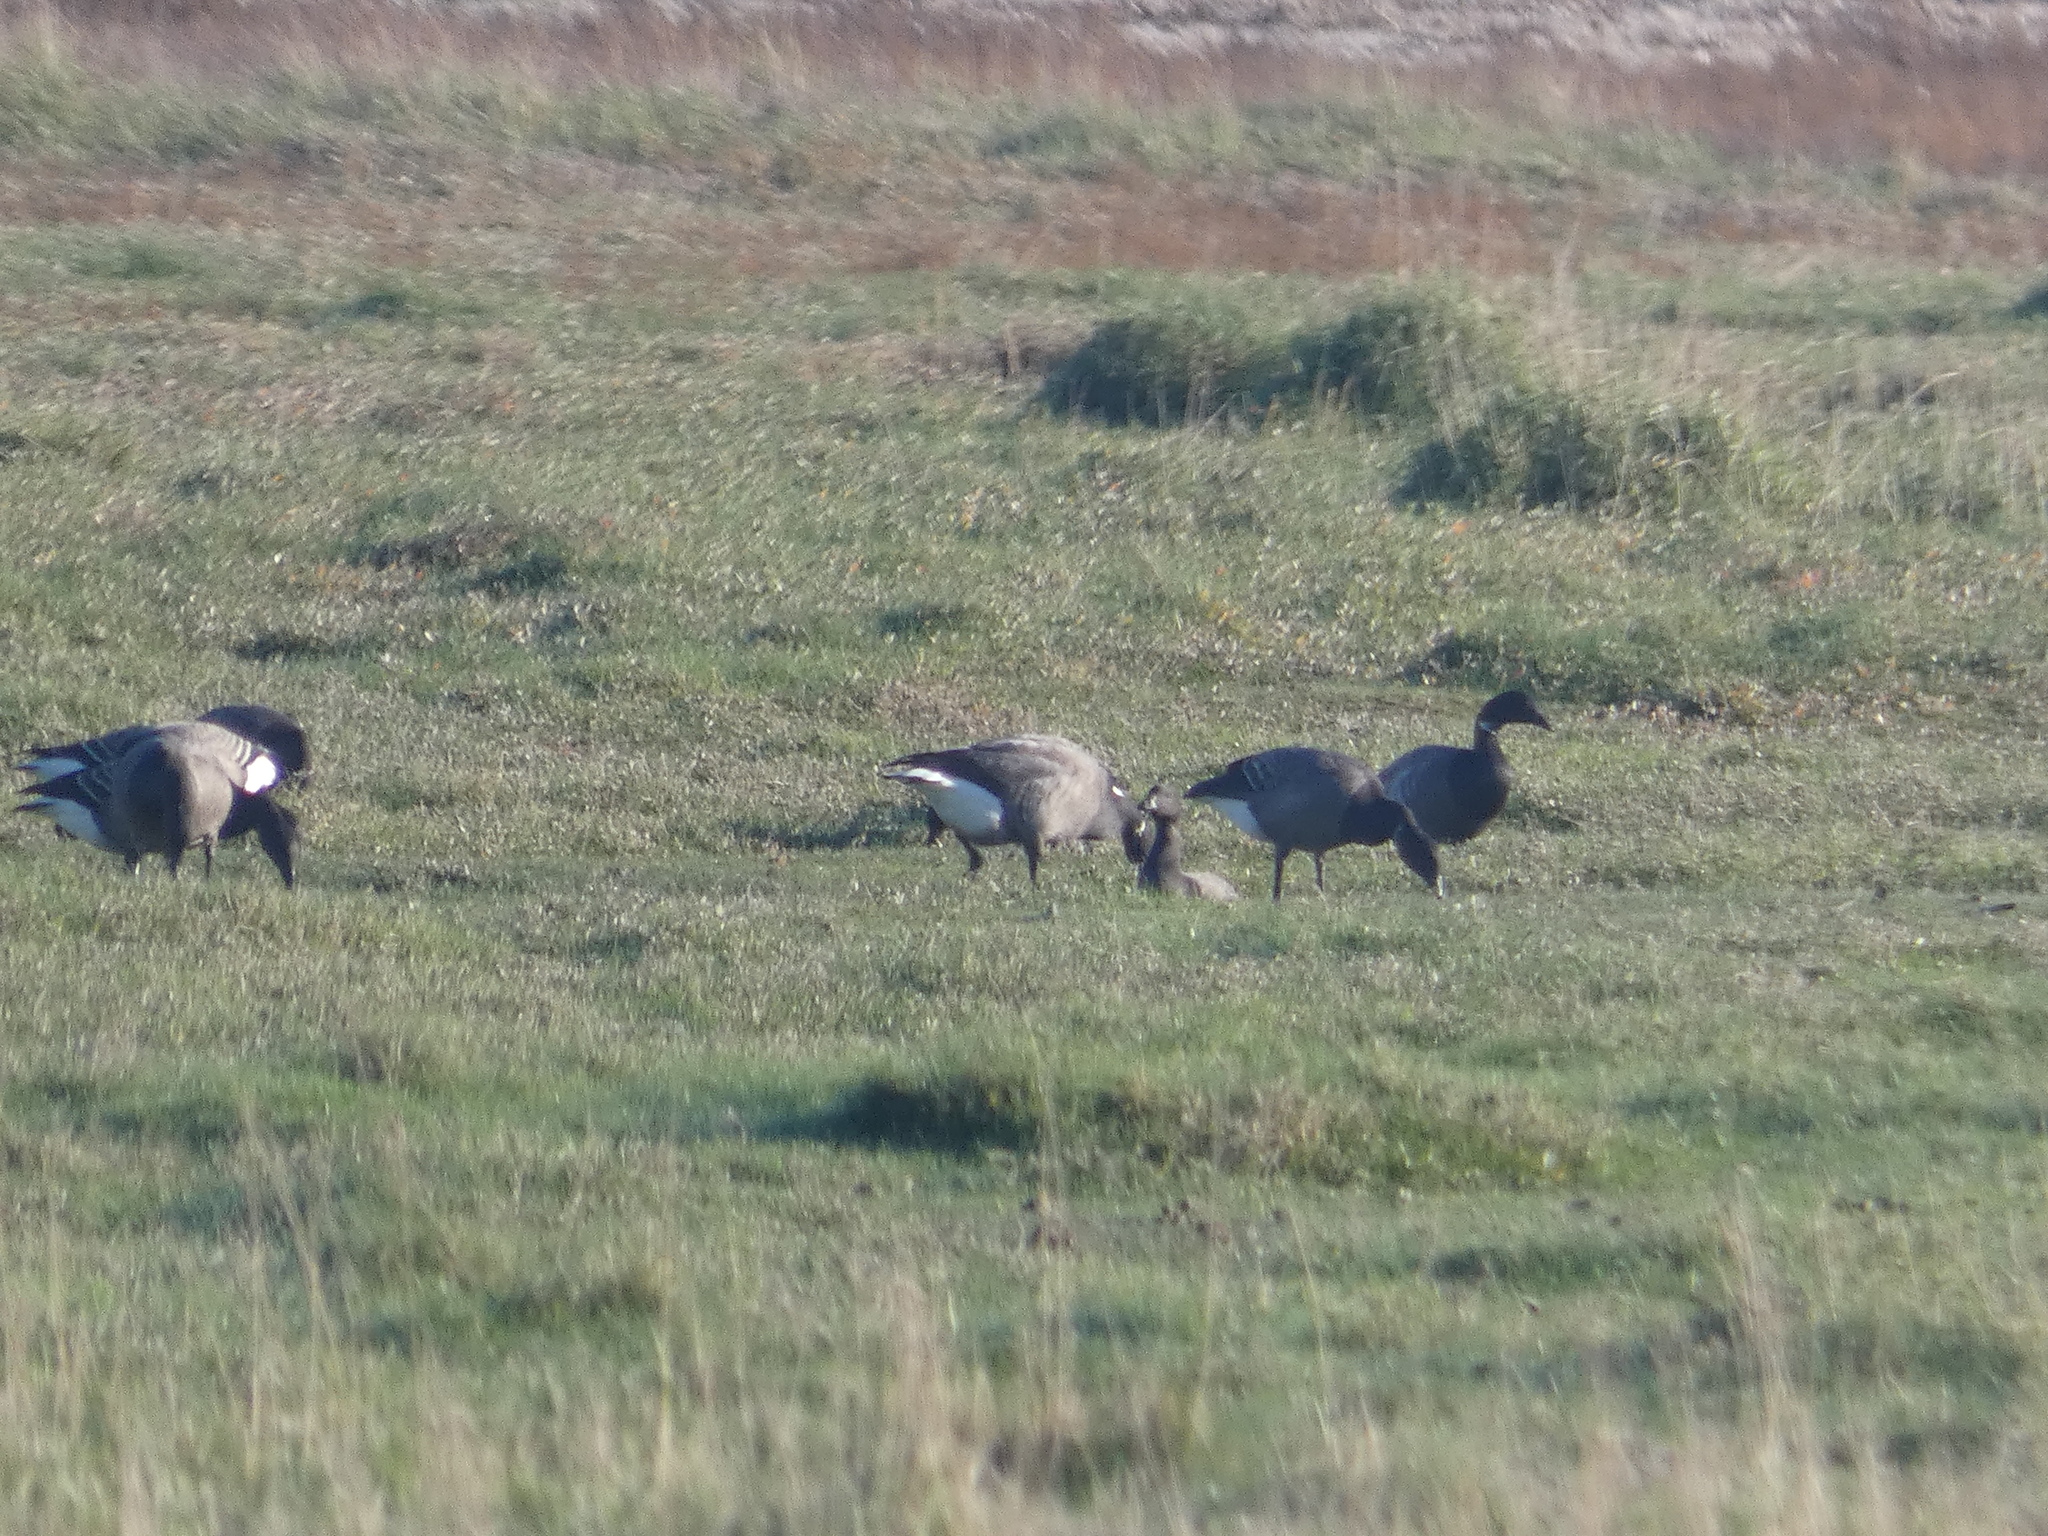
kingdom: Animalia
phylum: Chordata
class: Aves
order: Anseriformes
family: Anatidae
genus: Branta
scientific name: Branta bernicla
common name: Brant goose
